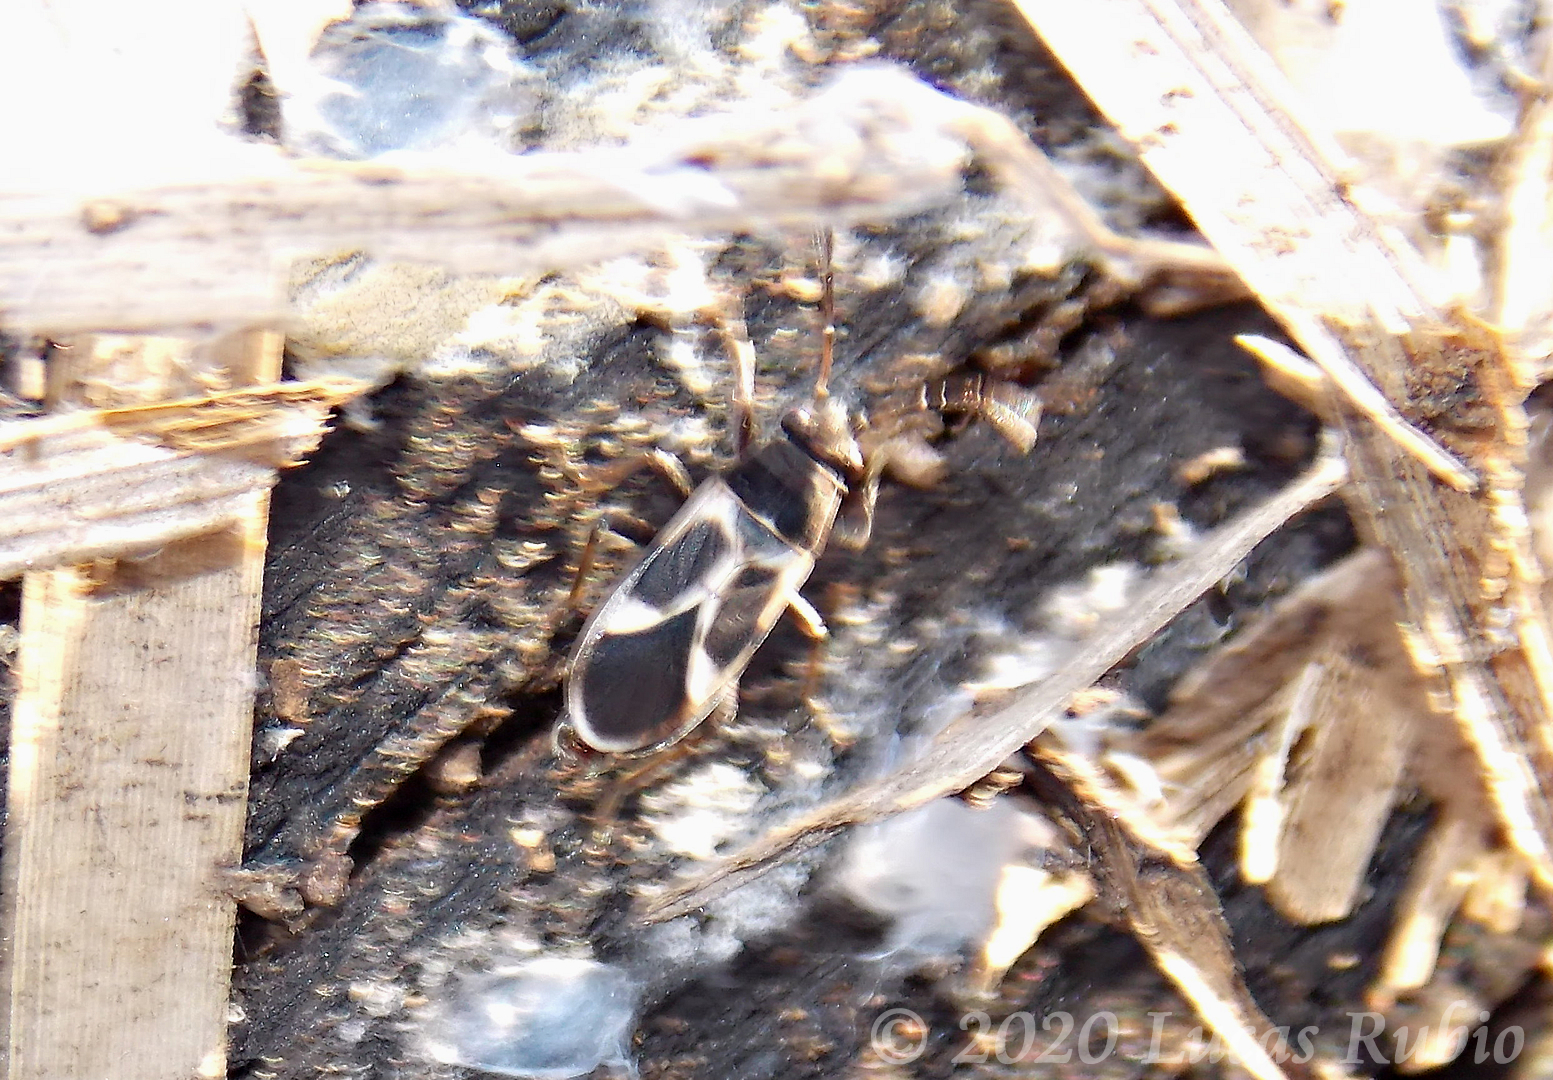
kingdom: Animalia
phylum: Arthropoda
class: Insecta
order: Hemiptera
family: Lygaeidae
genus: Ochrimnus
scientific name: Ochrimnus cinctipennis
